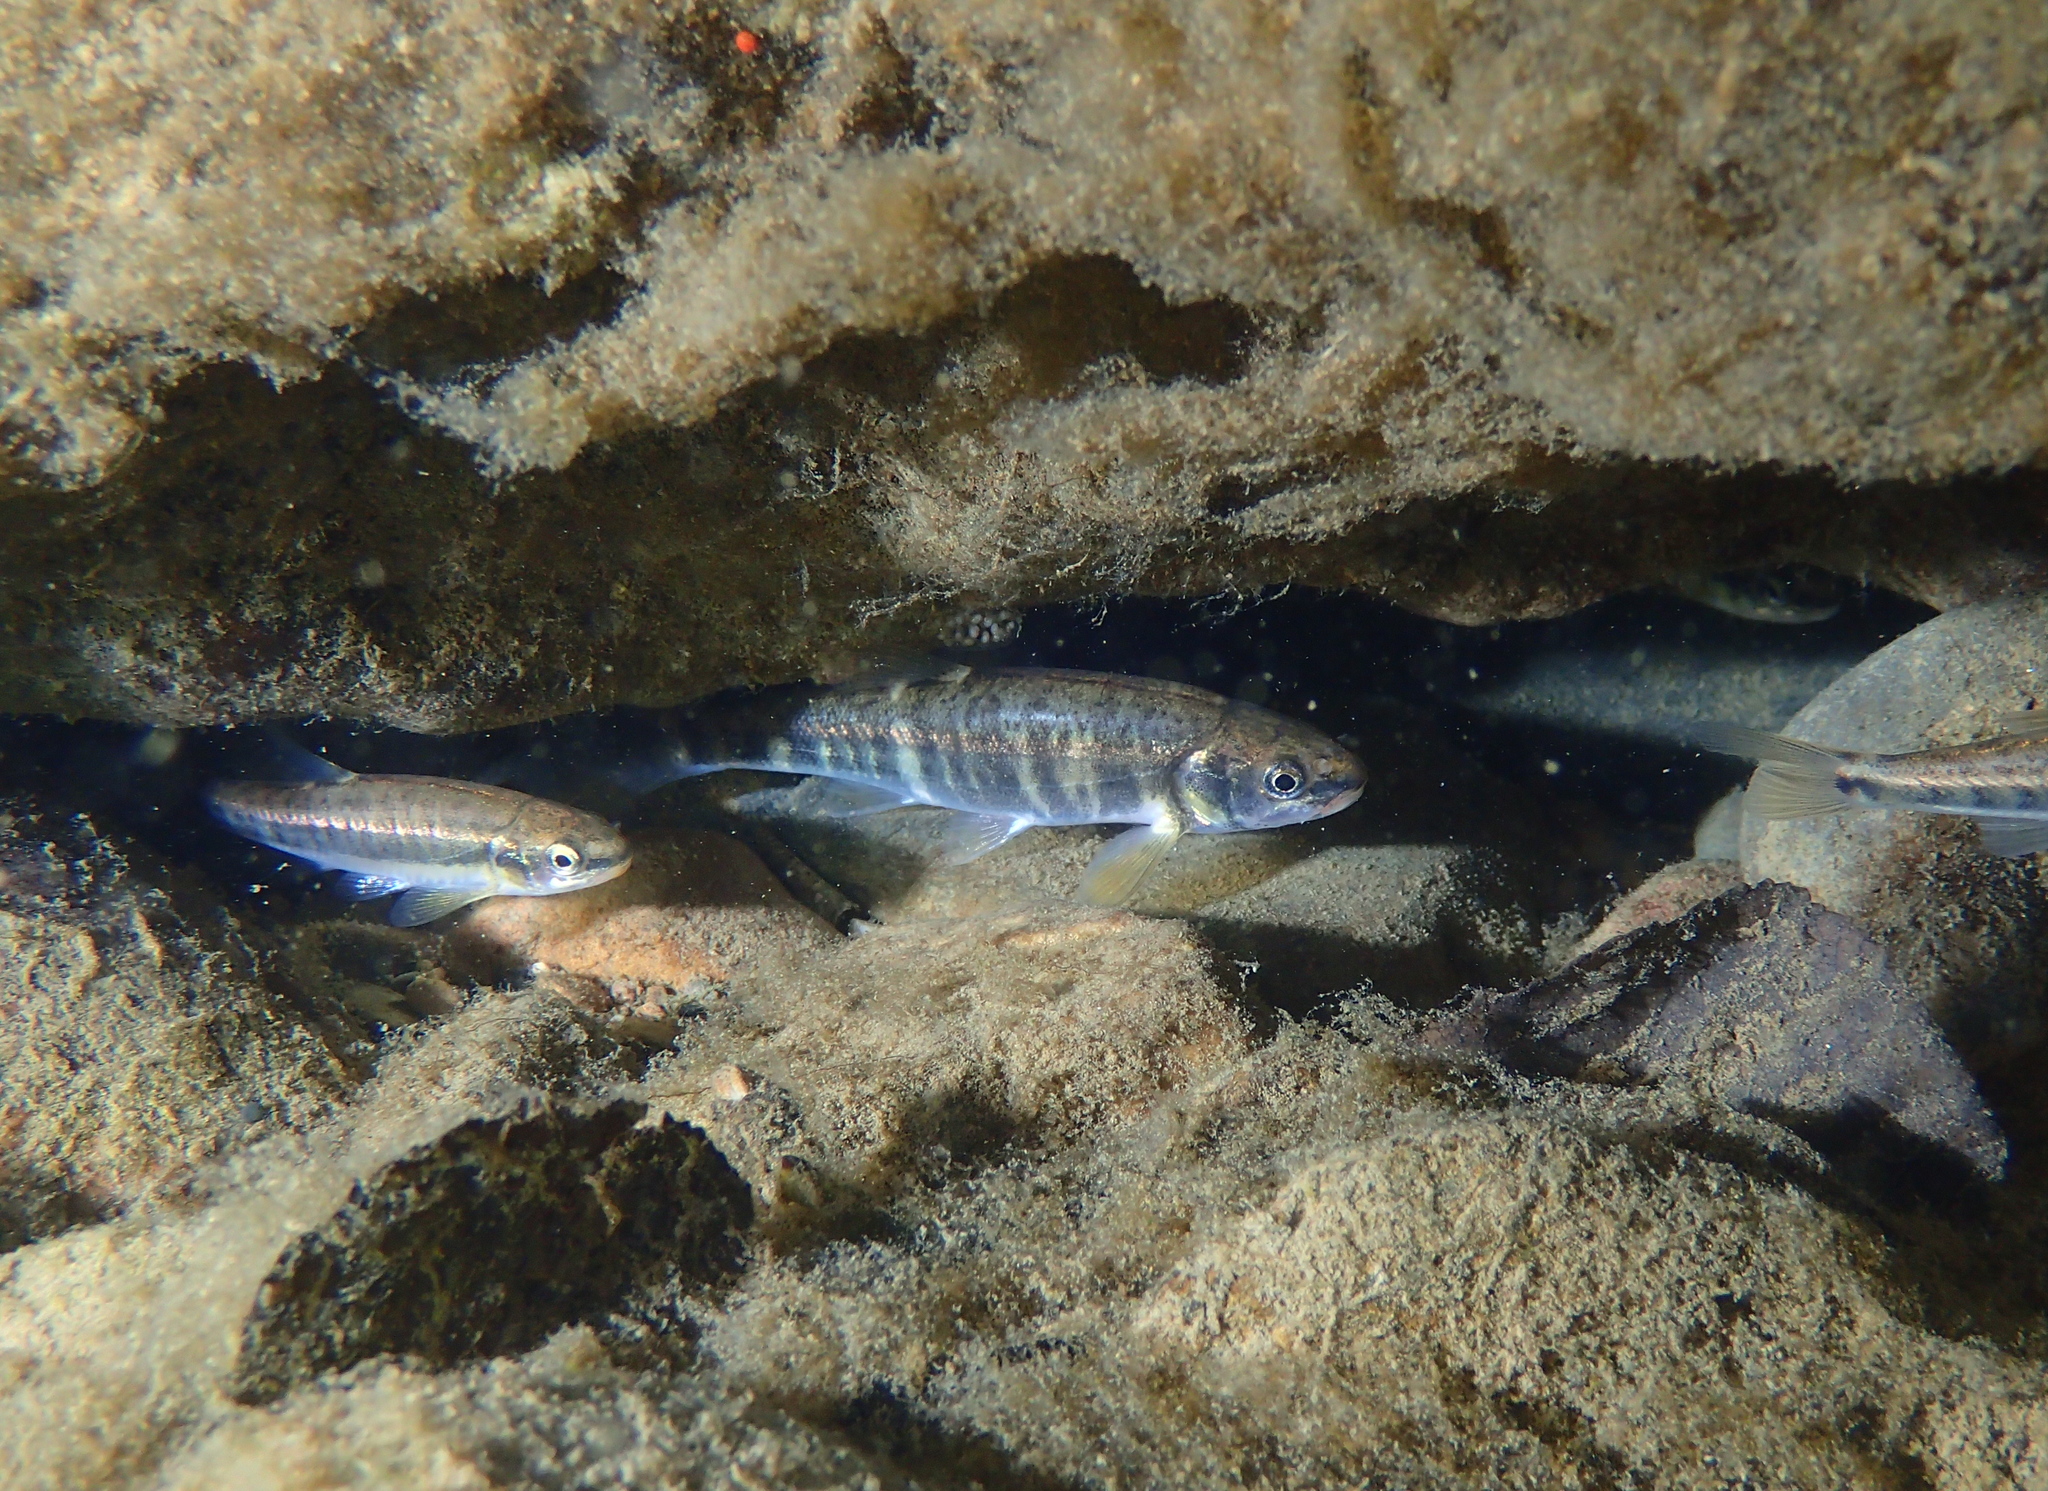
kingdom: Animalia
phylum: Chordata
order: Cypriniformes
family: Cyprinidae
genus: Phoxinus
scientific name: Phoxinus bigerri
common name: Adour minnow
